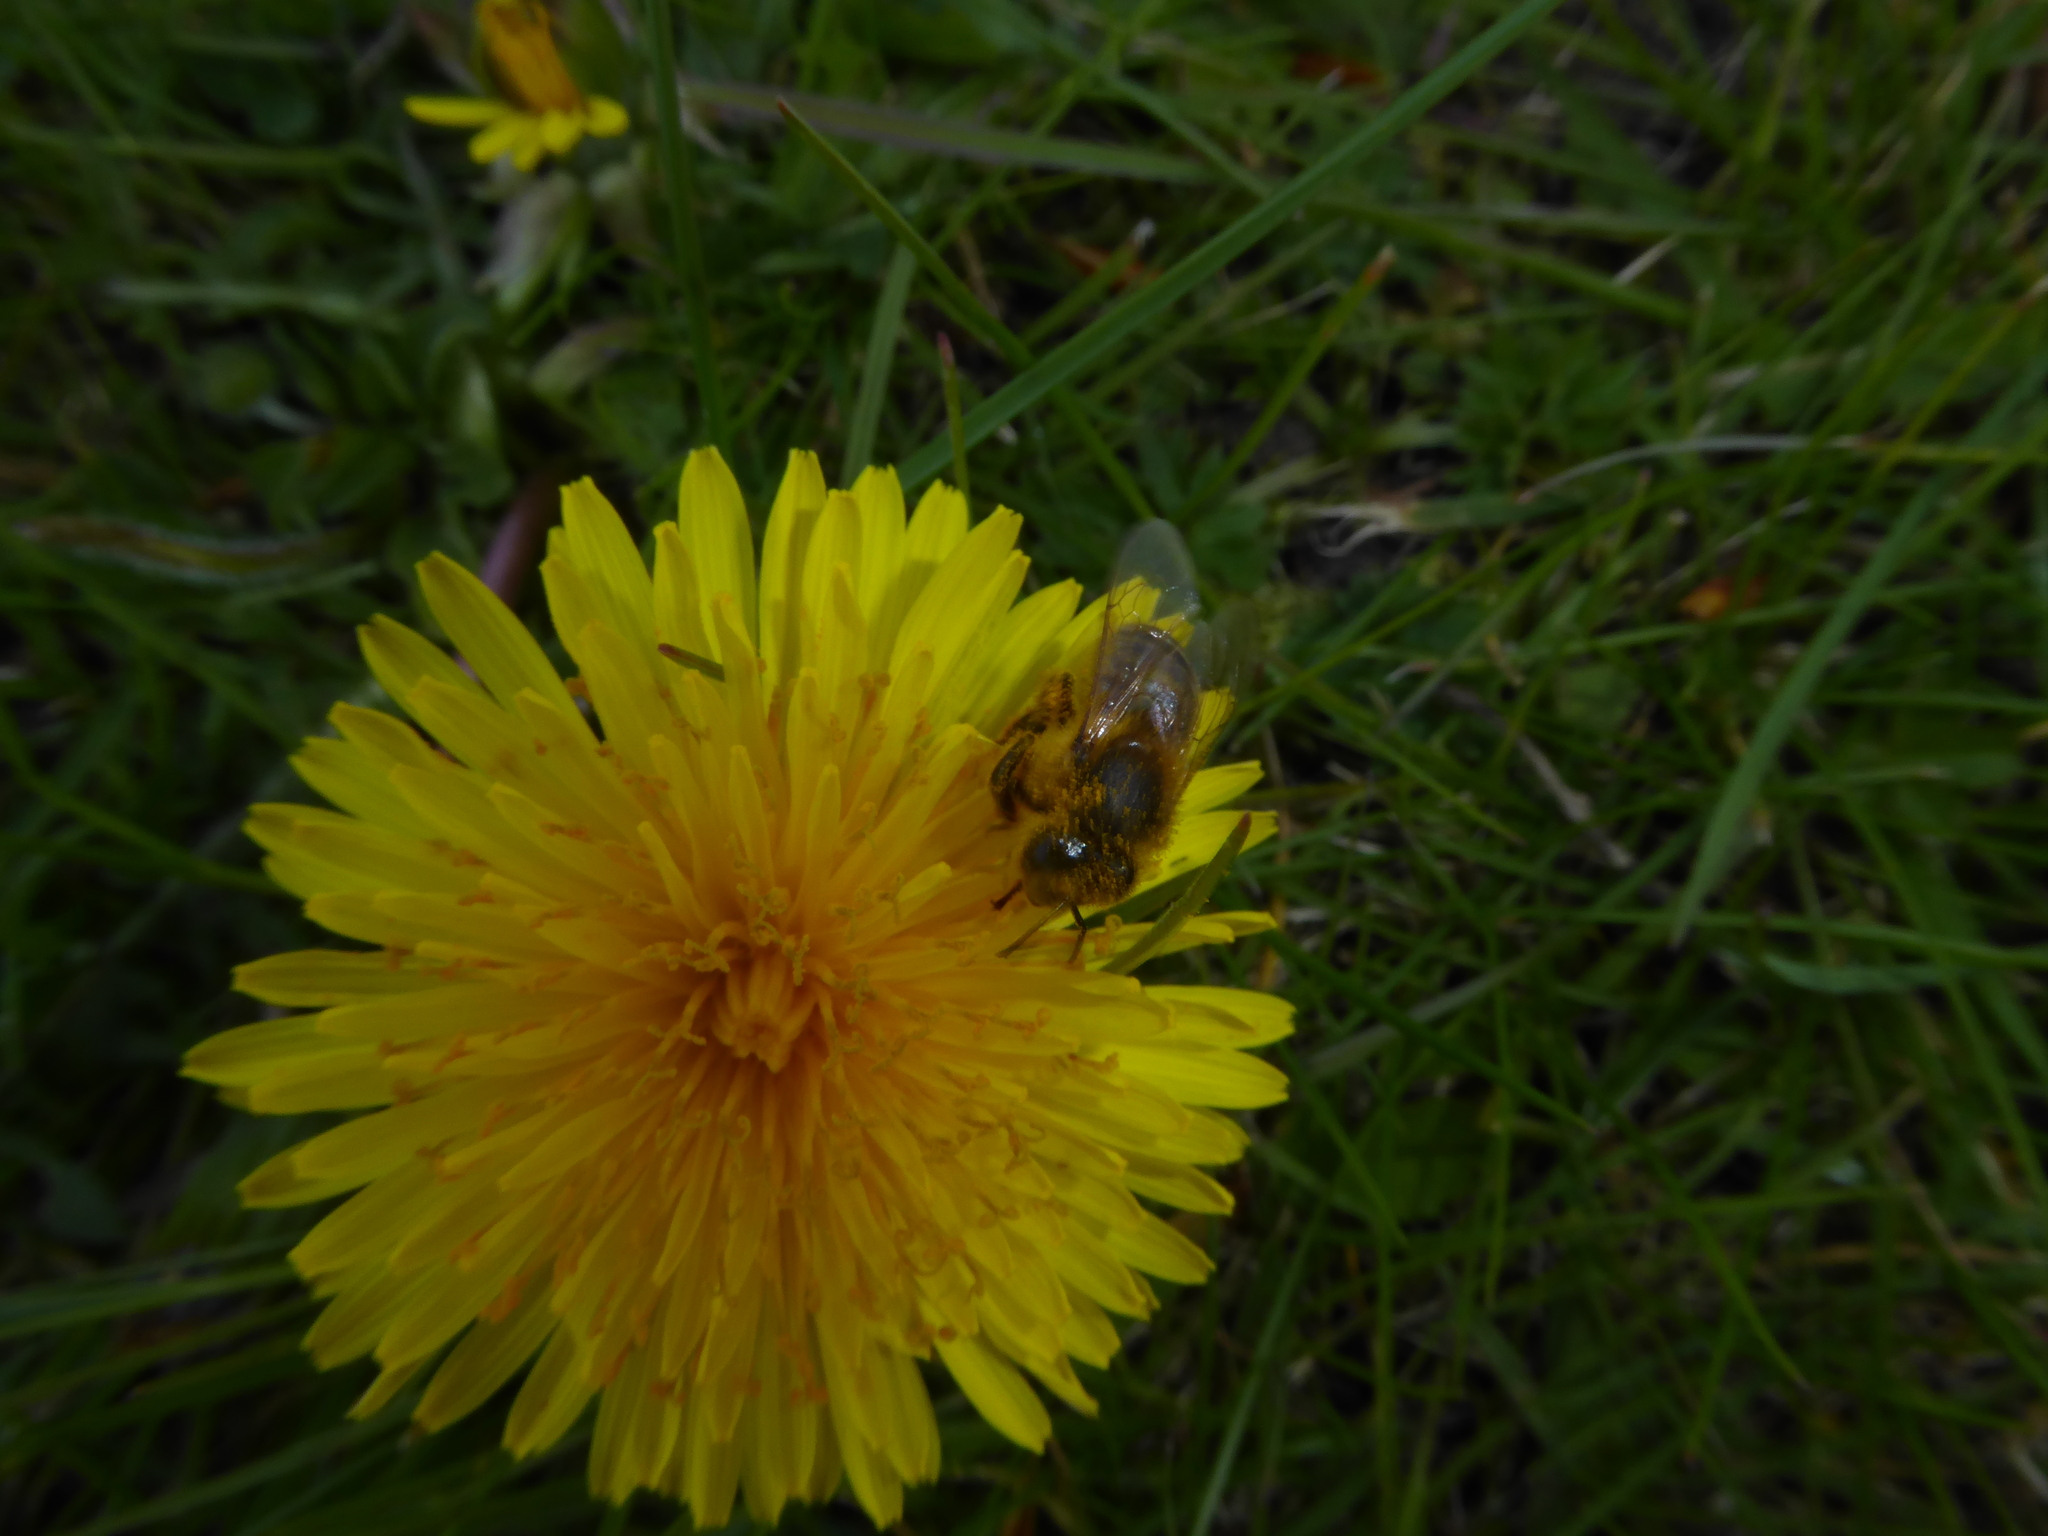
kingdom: Animalia
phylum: Arthropoda
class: Insecta
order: Hymenoptera
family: Apidae
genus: Apis
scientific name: Apis mellifera
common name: Honey bee
